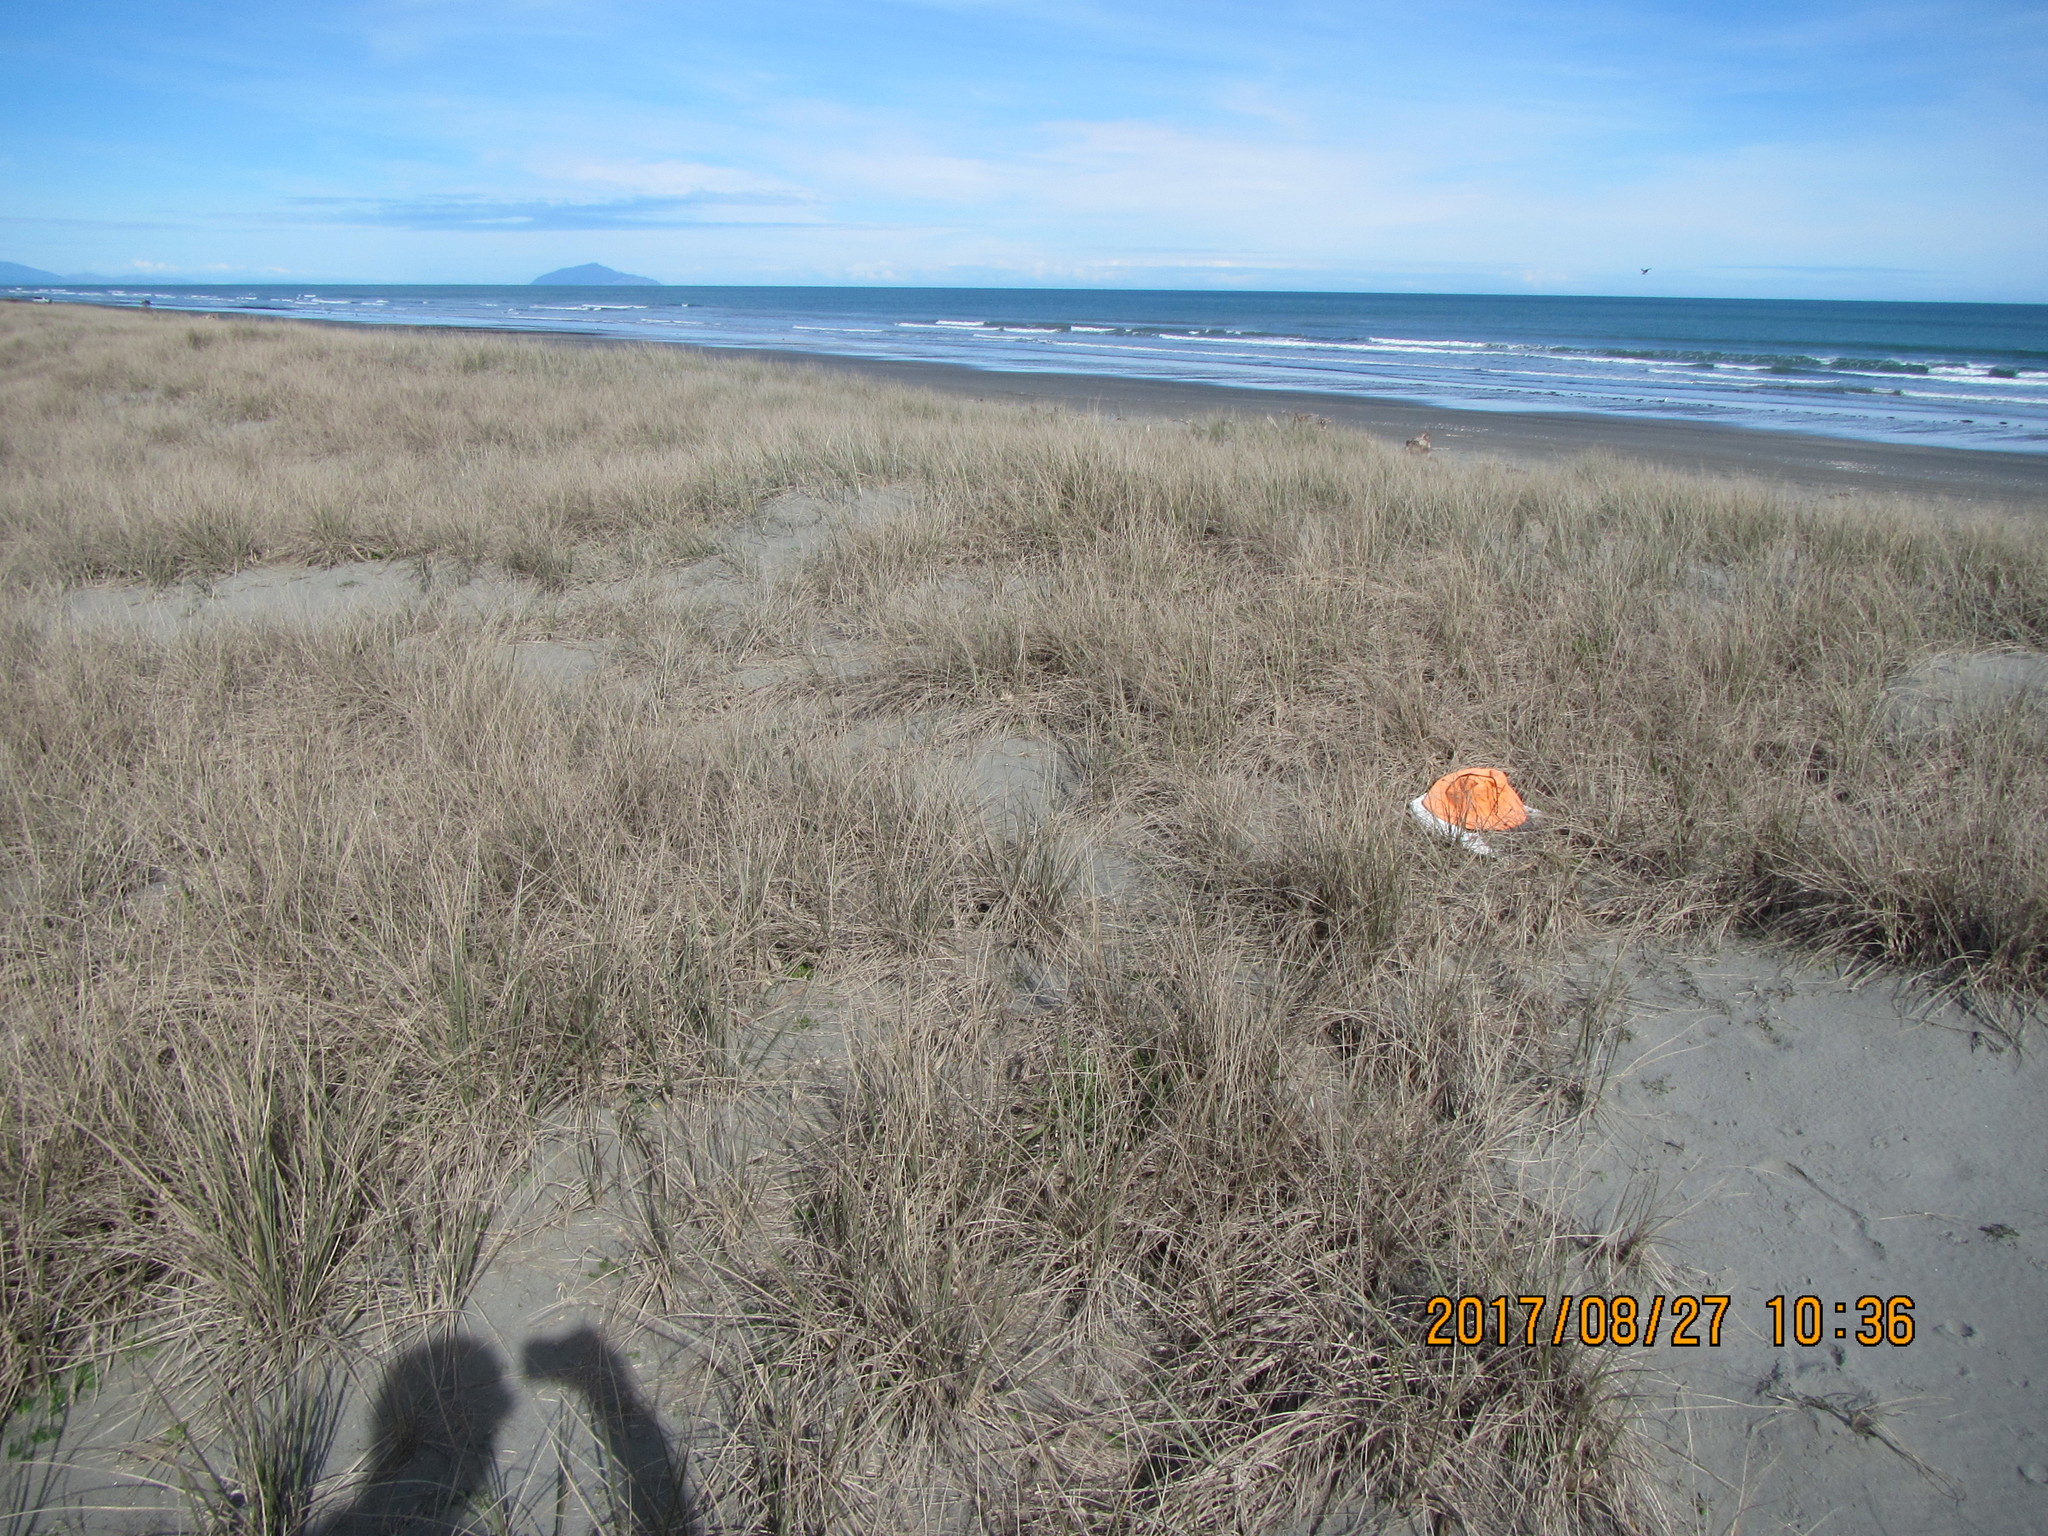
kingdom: Animalia
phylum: Arthropoda
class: Arachnida
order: Araneae
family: Zoropsidae
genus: Uliodon
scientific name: Uliodon albopunctatus
